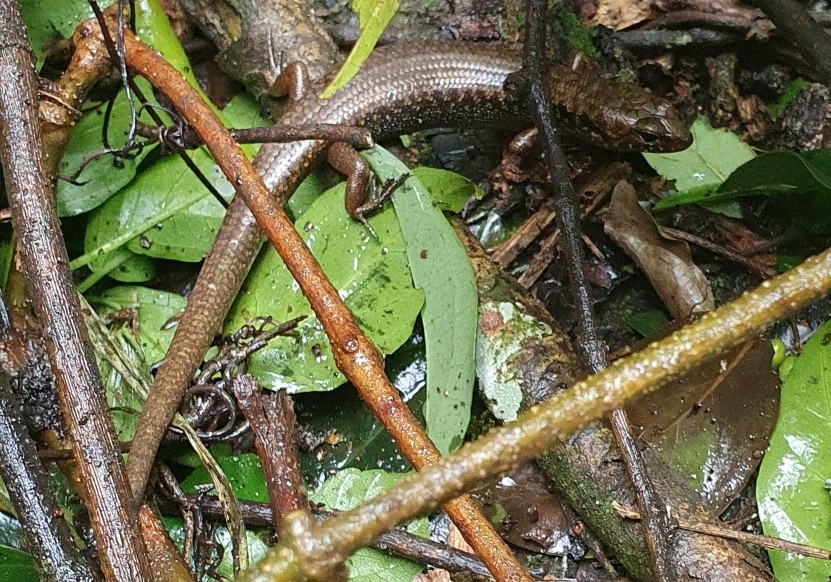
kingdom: Animalia
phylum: Chordata
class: Squamata
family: Scincidae
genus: Silvascincus
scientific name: Silvascincus murrayi
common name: Blue-speckled forest-skink
